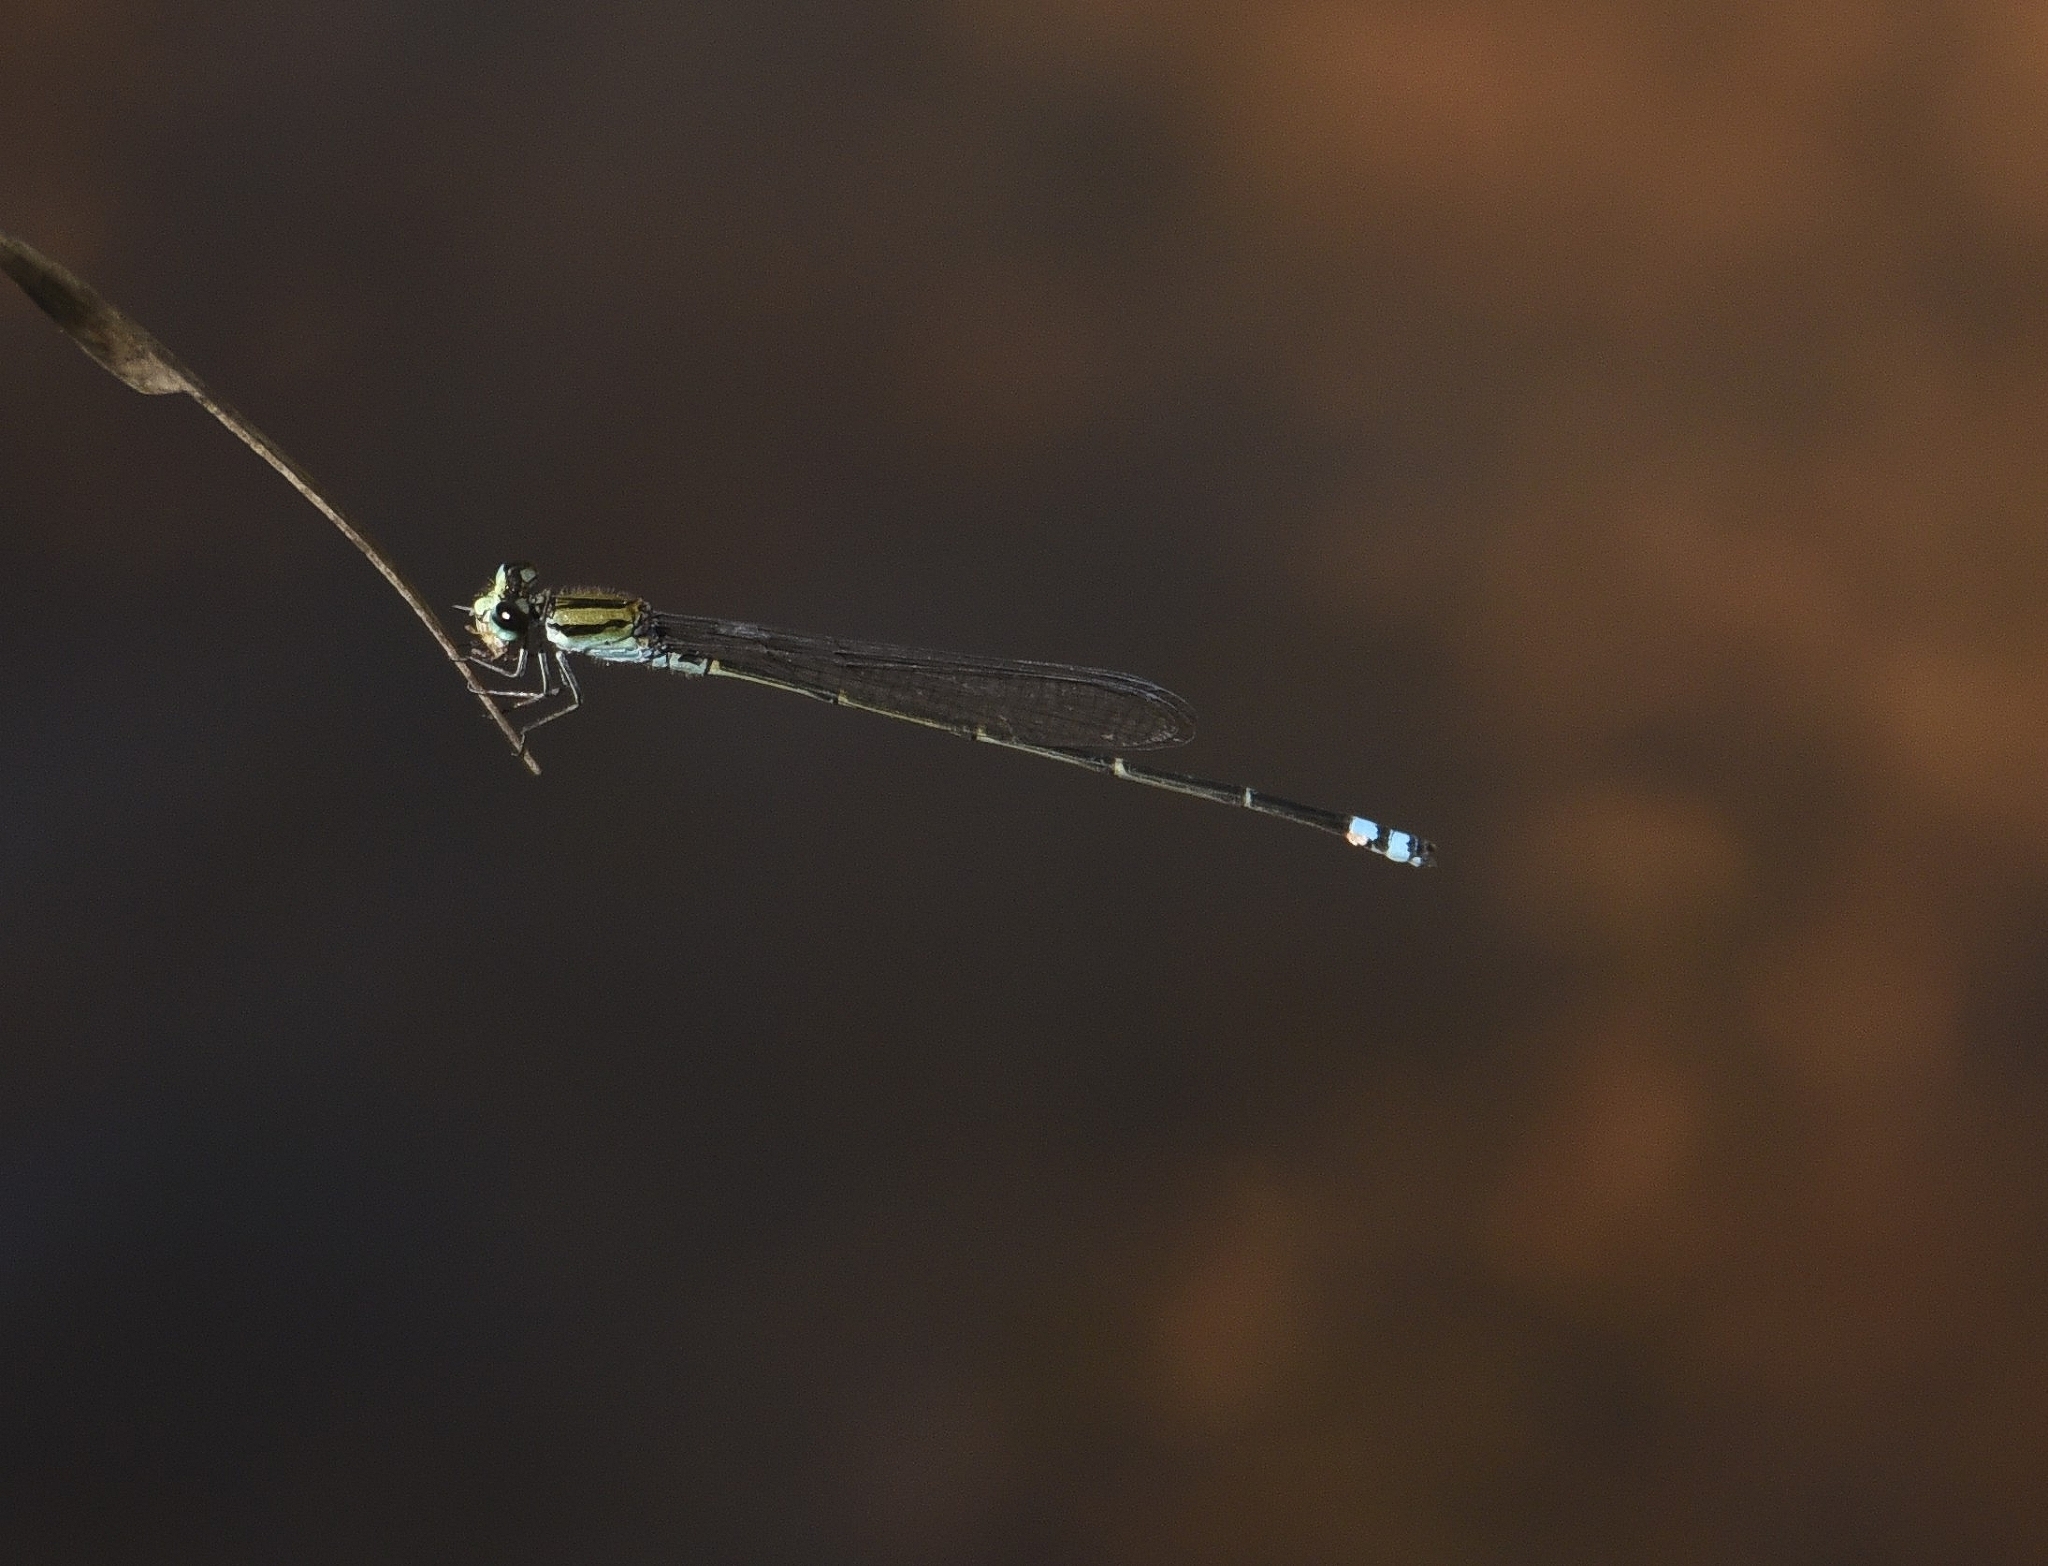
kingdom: Animalia
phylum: Arthropoda
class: Insecta
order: Odonata
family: Coenagrionidae
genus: Pseudagrion
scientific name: Pseudagrion indicum
